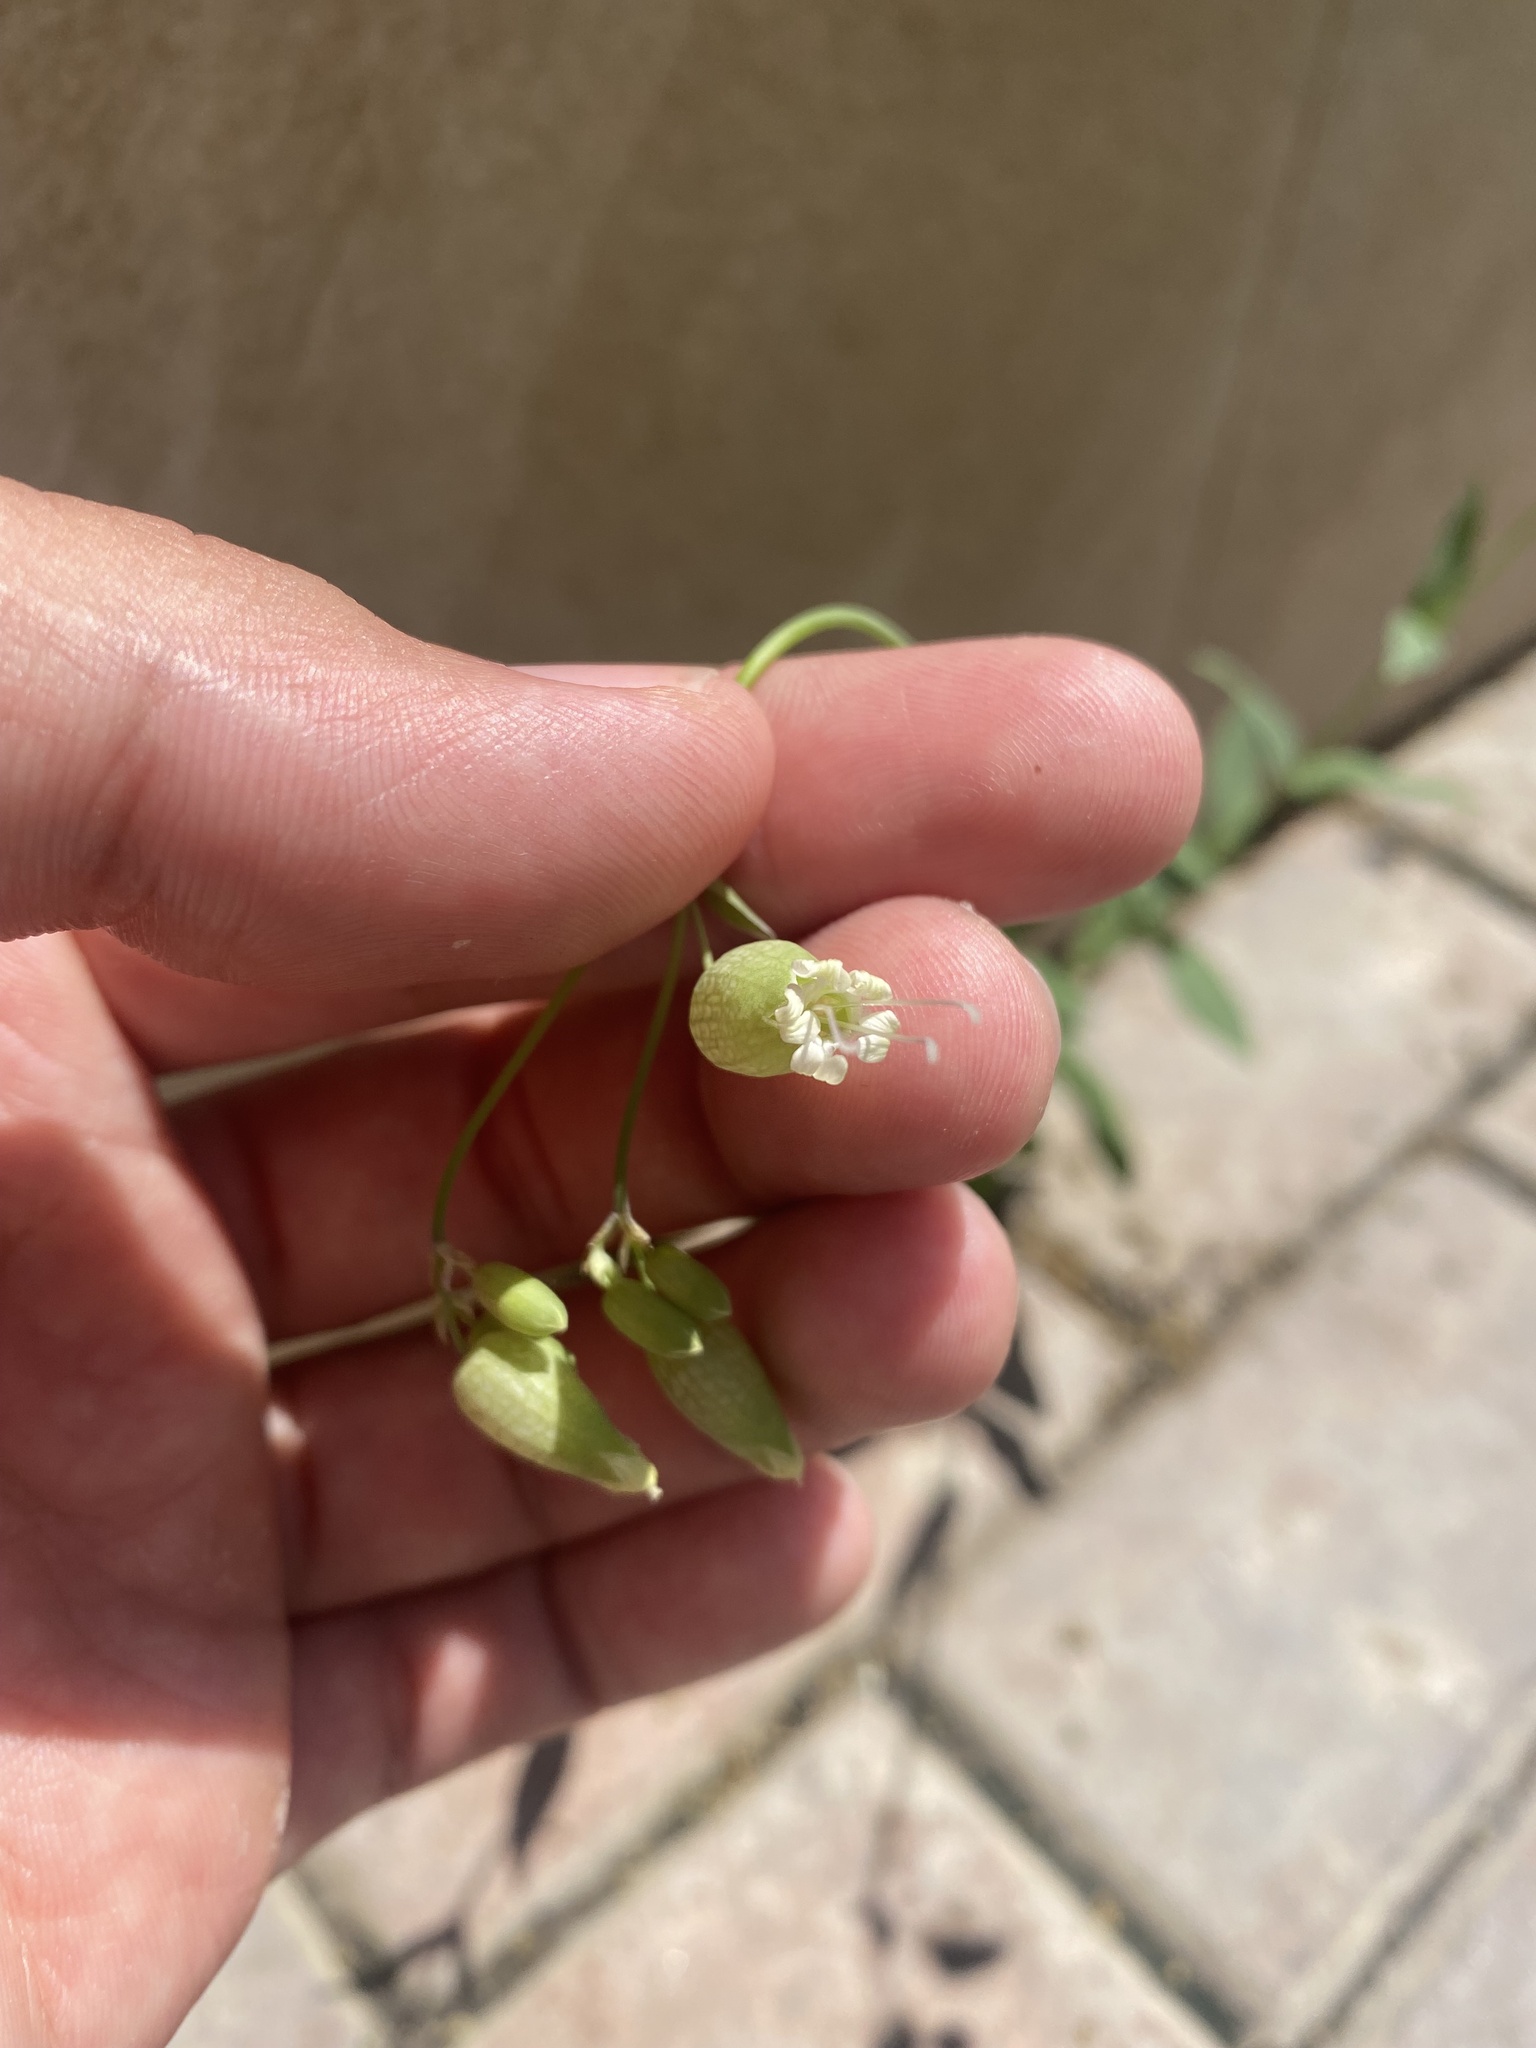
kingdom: Plantae
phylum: Tracheophyta
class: Magnoliopsida
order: Caryophyllales
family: Caryophyllaceae
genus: Silene
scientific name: Silene vulgaris
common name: Bladder campion
